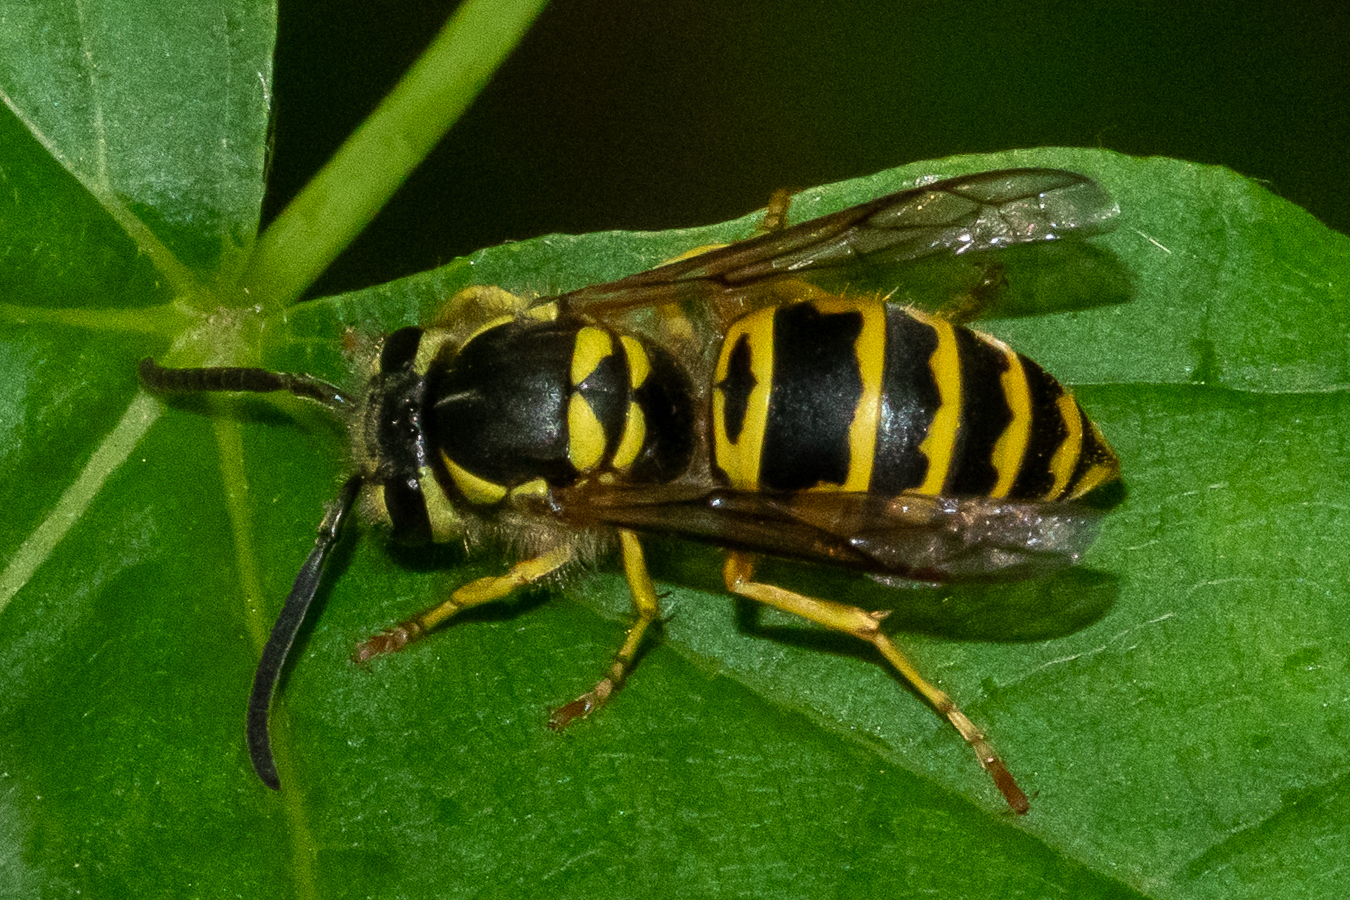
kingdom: Animalia
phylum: Arthropoda
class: Insecta
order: Hymenoptera
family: Vespidae
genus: Vespula
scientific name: Vespula maculifrons
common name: Eastern yellowjacket
